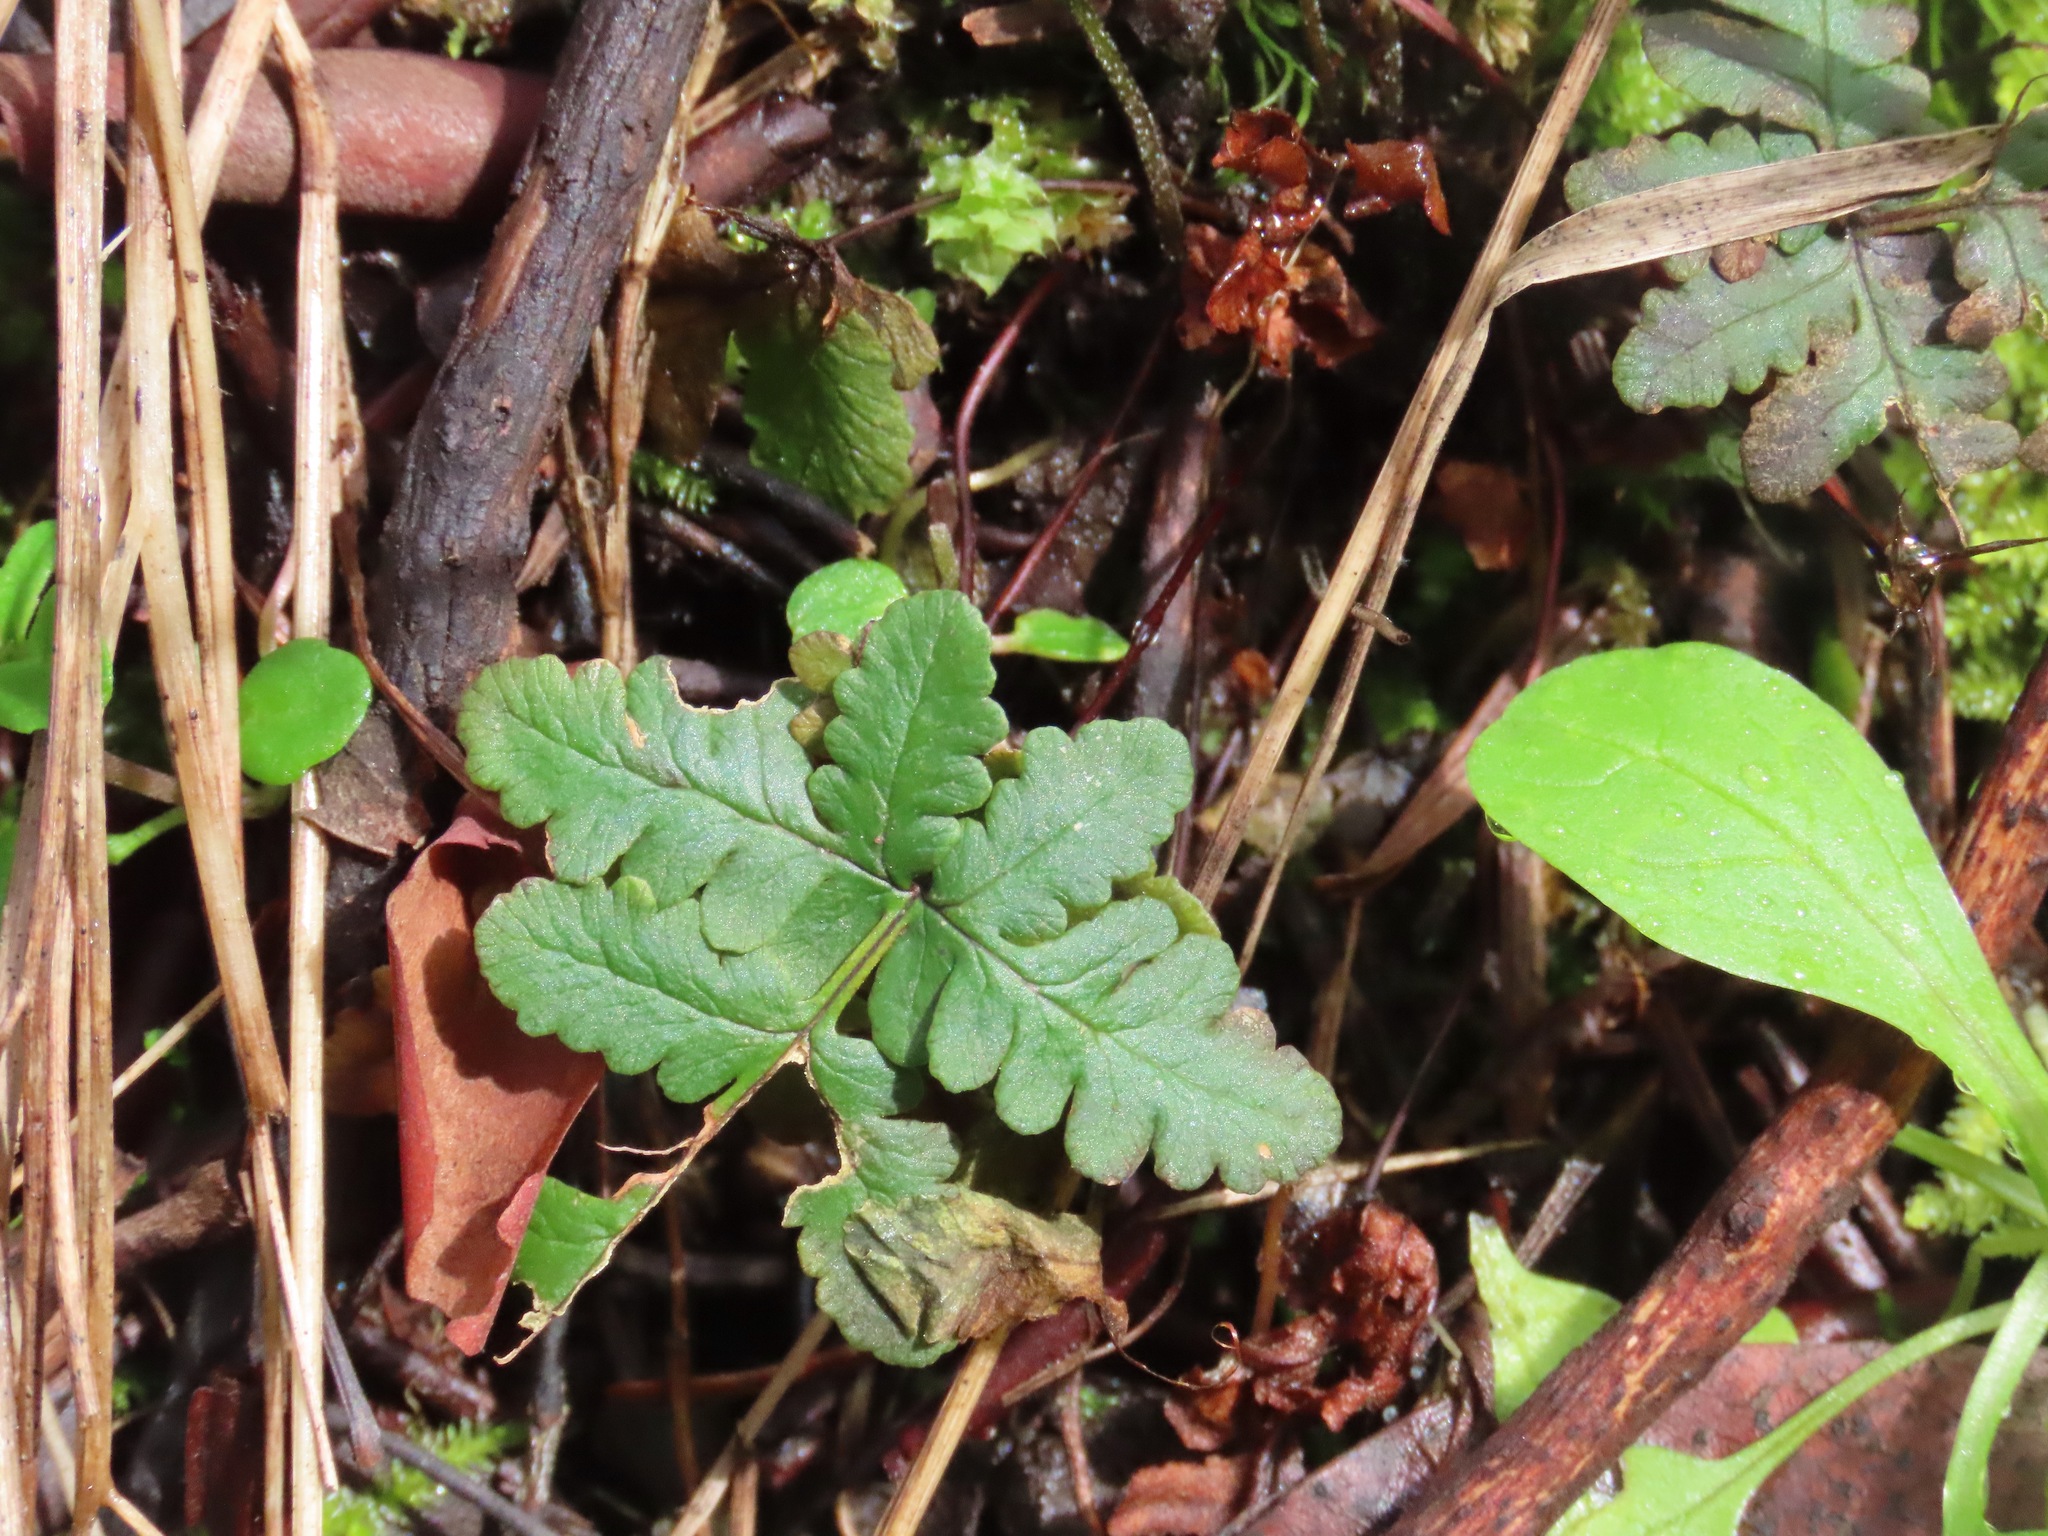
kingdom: Plantae
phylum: Tracheophyta
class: Polypodiopsida
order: Polypodiales
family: Pteridaceae
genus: Pentagramma
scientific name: Pentagramma triangularis
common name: Gold fern
